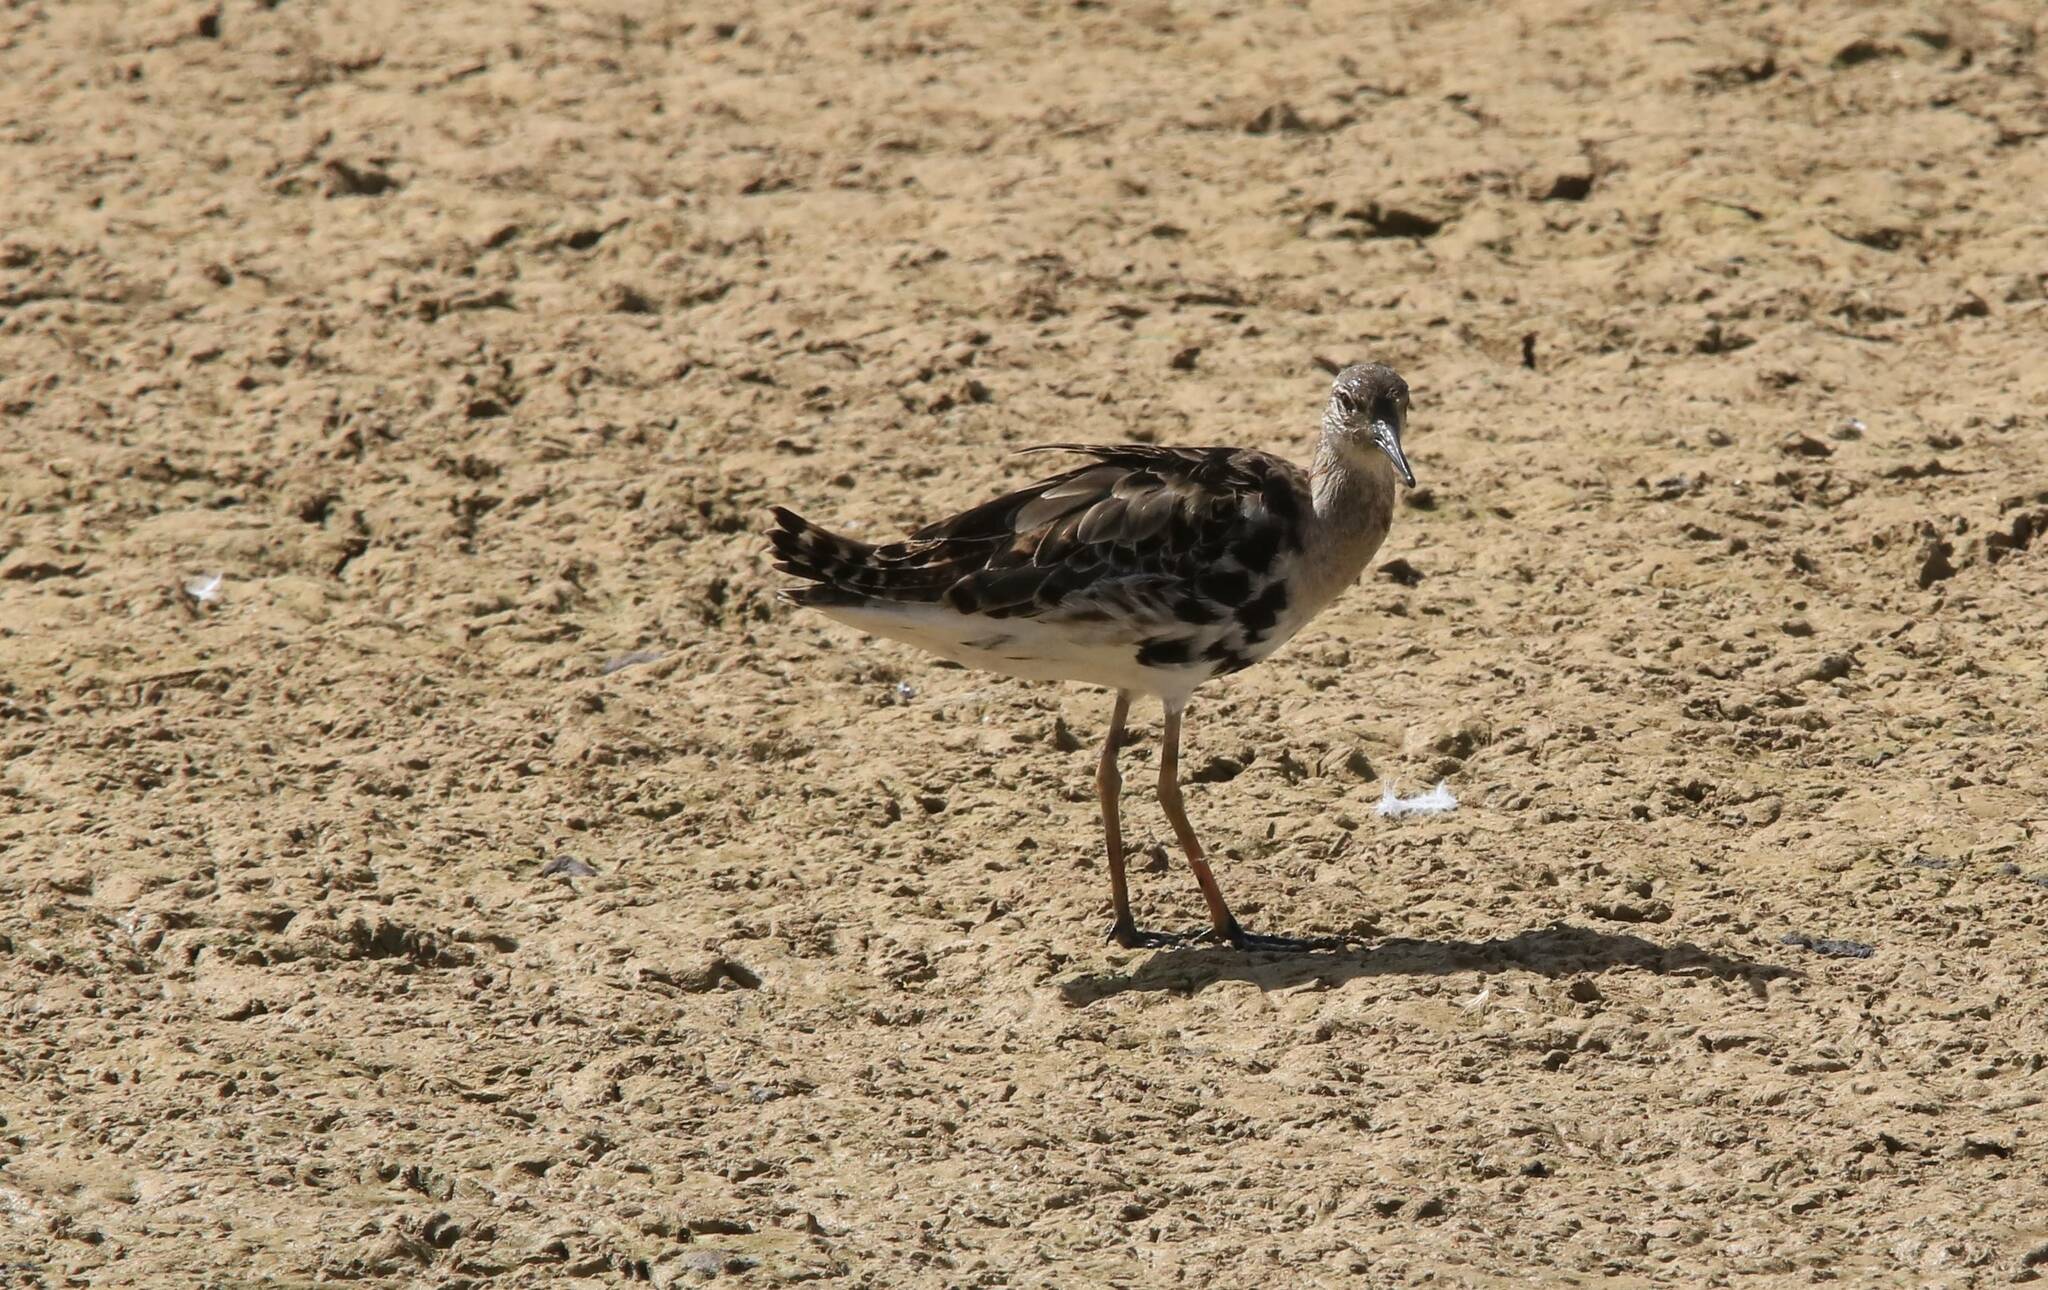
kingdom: Animalia
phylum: Chordata
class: Aves
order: Charadriiformes
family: Scolopacidae
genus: Calidris
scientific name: Calidris pugnax
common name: Ruff
